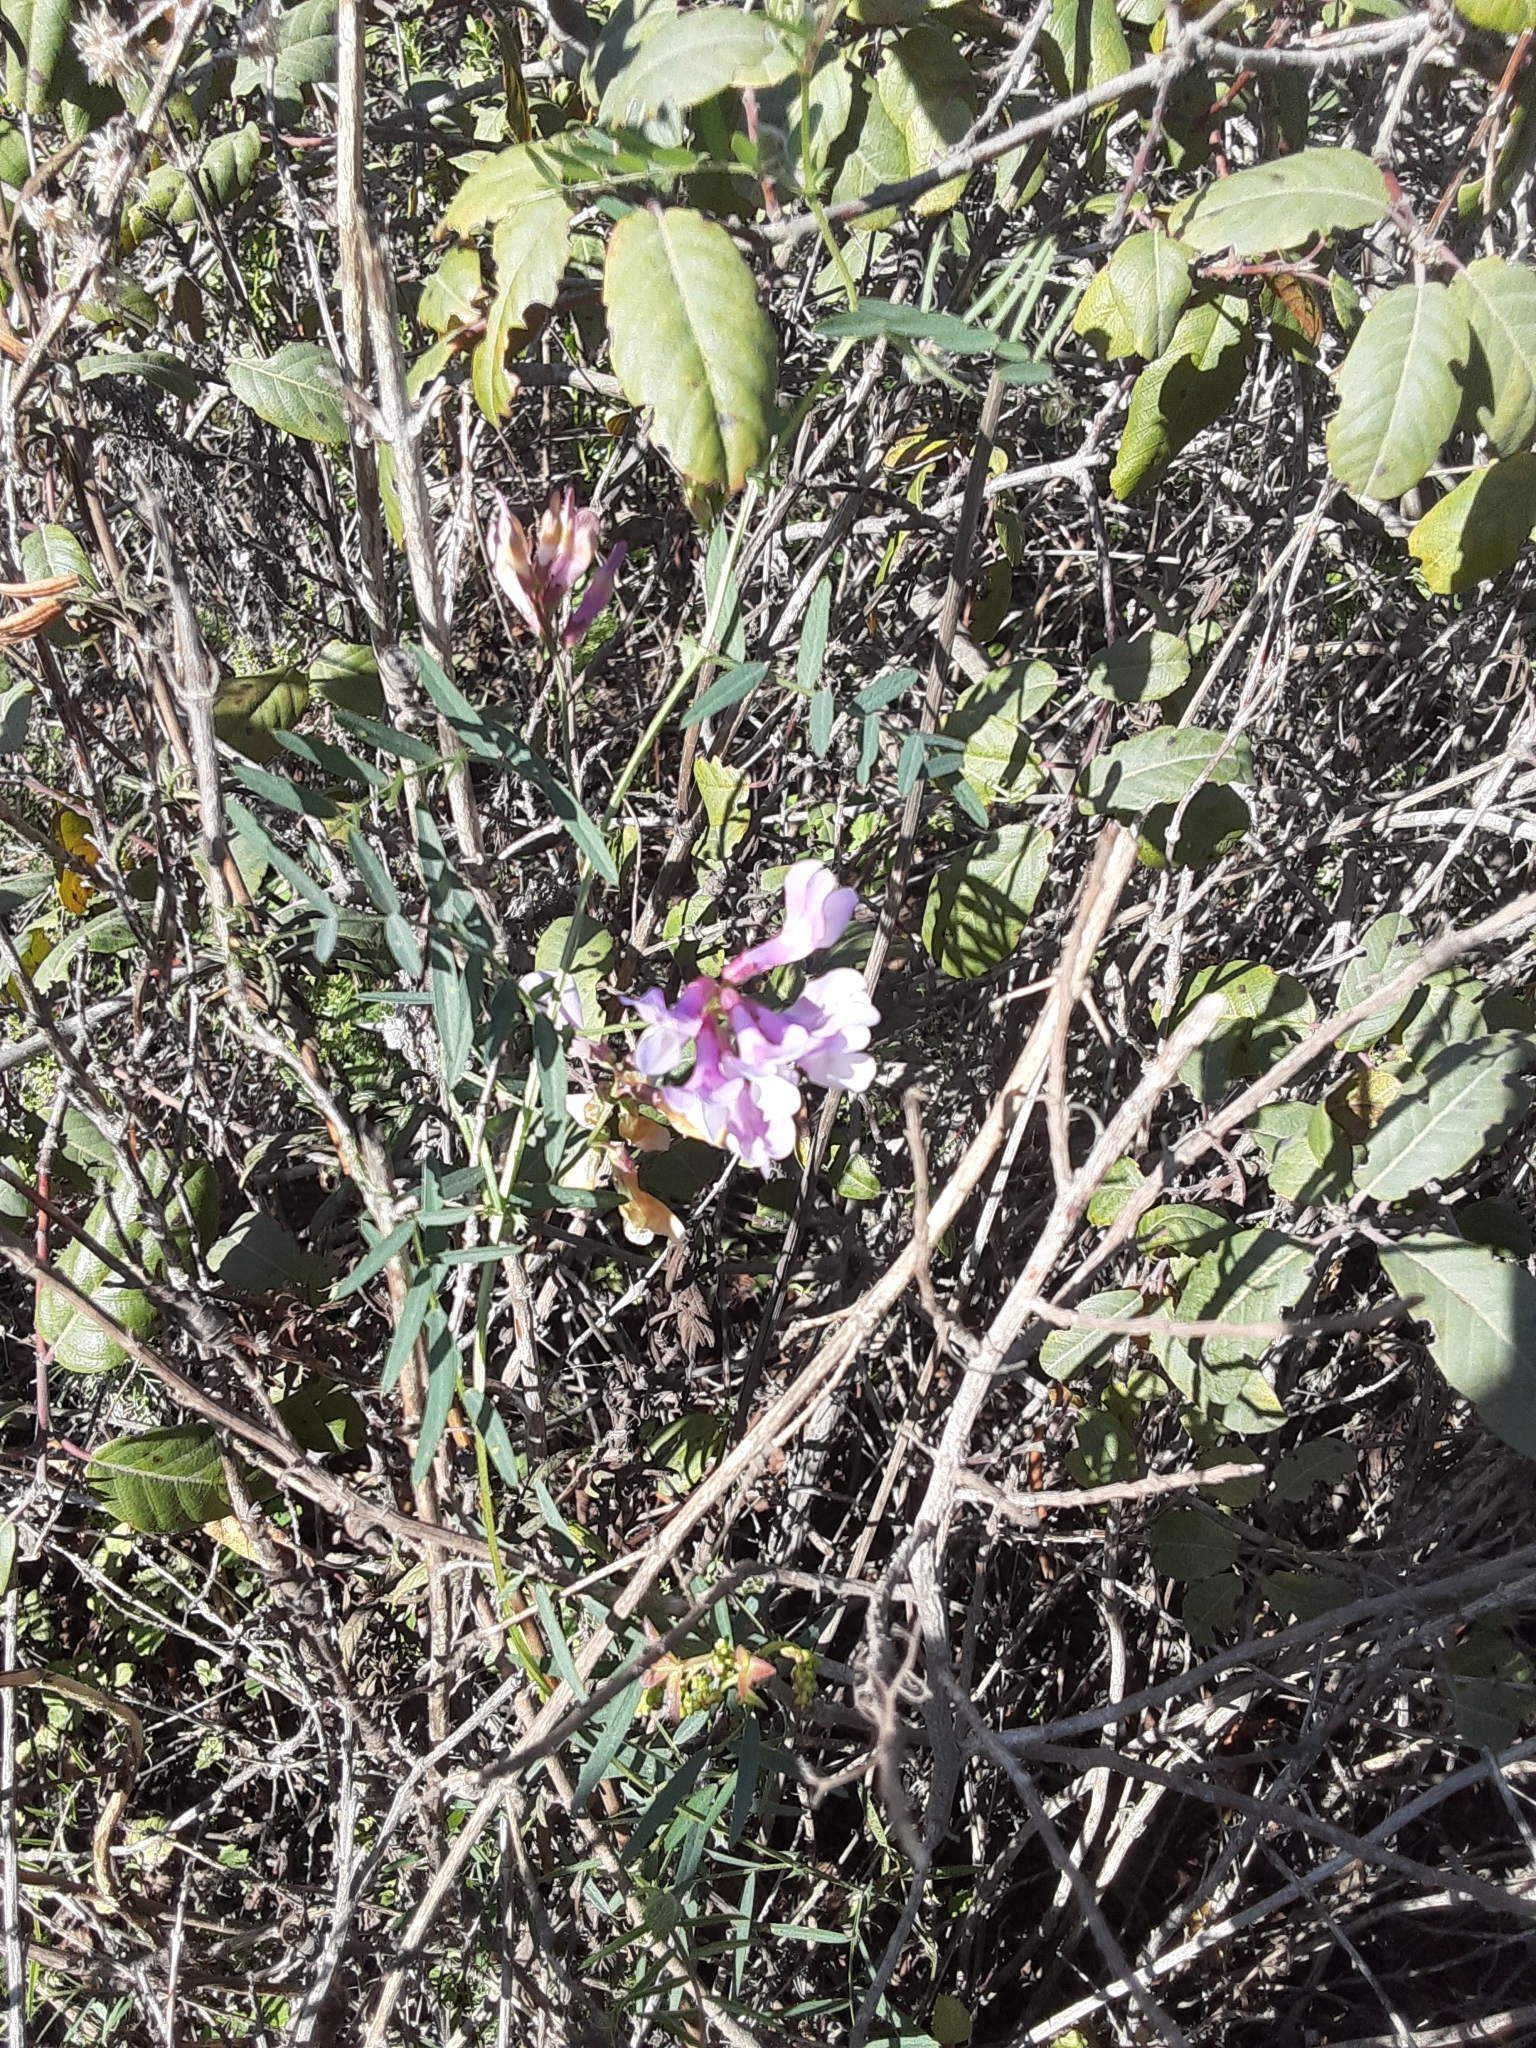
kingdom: Plantae
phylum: Tracheophyta
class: Magnoliopsida
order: Fabales
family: Fabaceae
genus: Lathyrus
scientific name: Lathyrus vestitus
